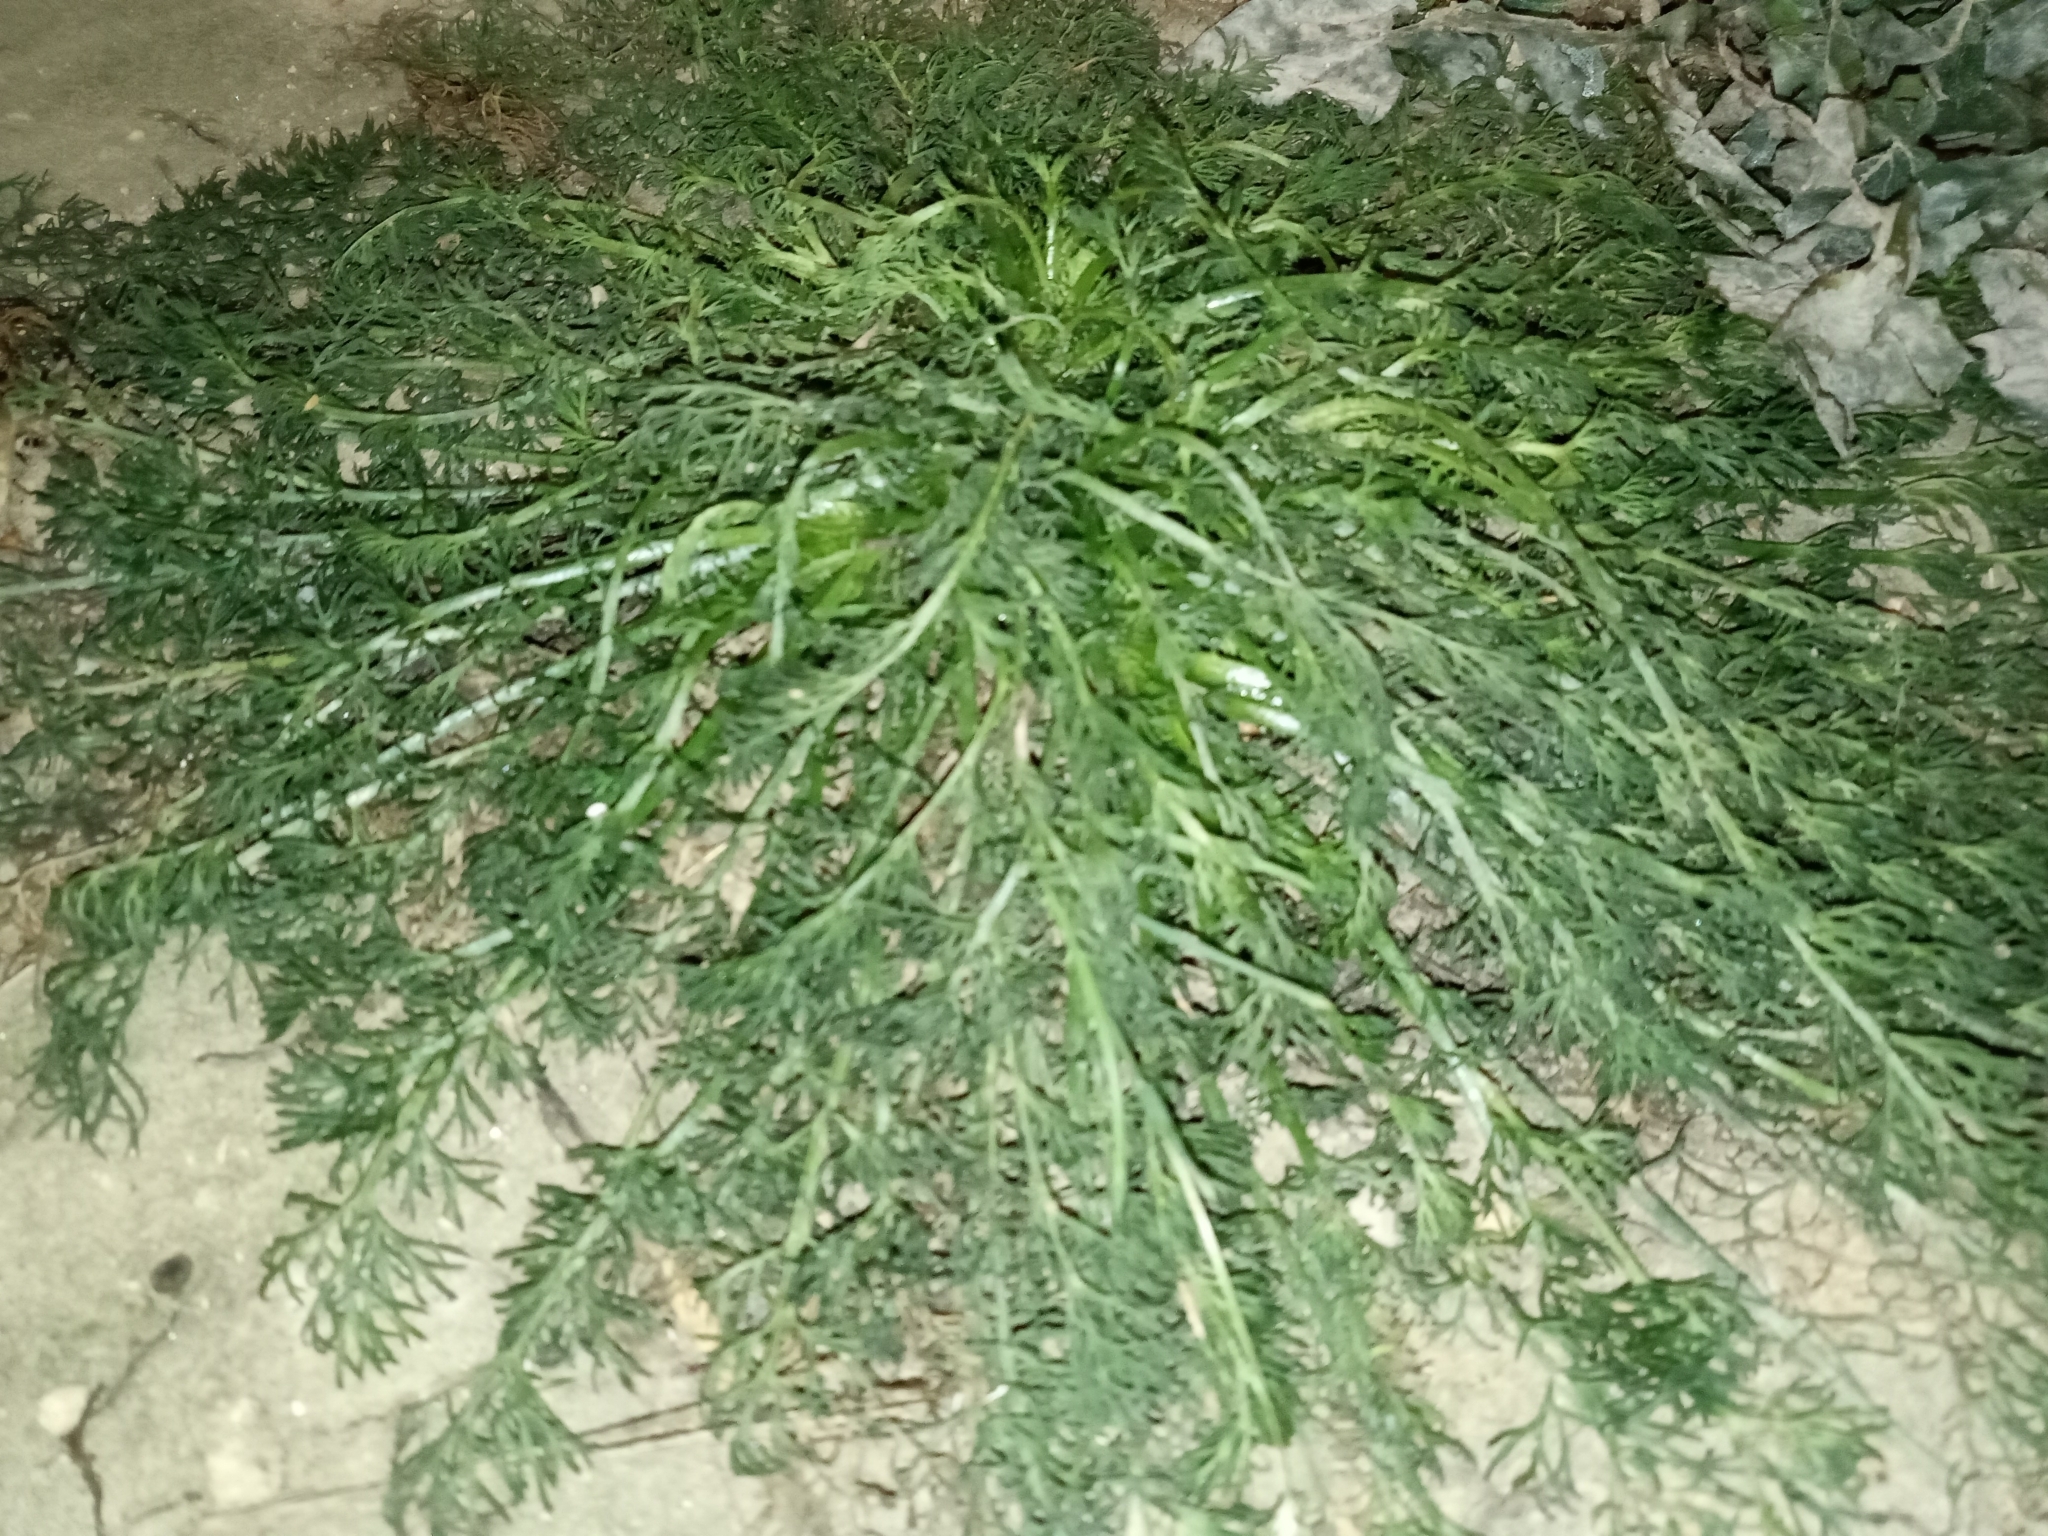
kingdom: Plantae
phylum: Tracheophyta
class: Magnoliopsida
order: Asterales
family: Asteraceae
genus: Tripleurospermum
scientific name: Tripleurospermum inodorum
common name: Scentless mayweed
